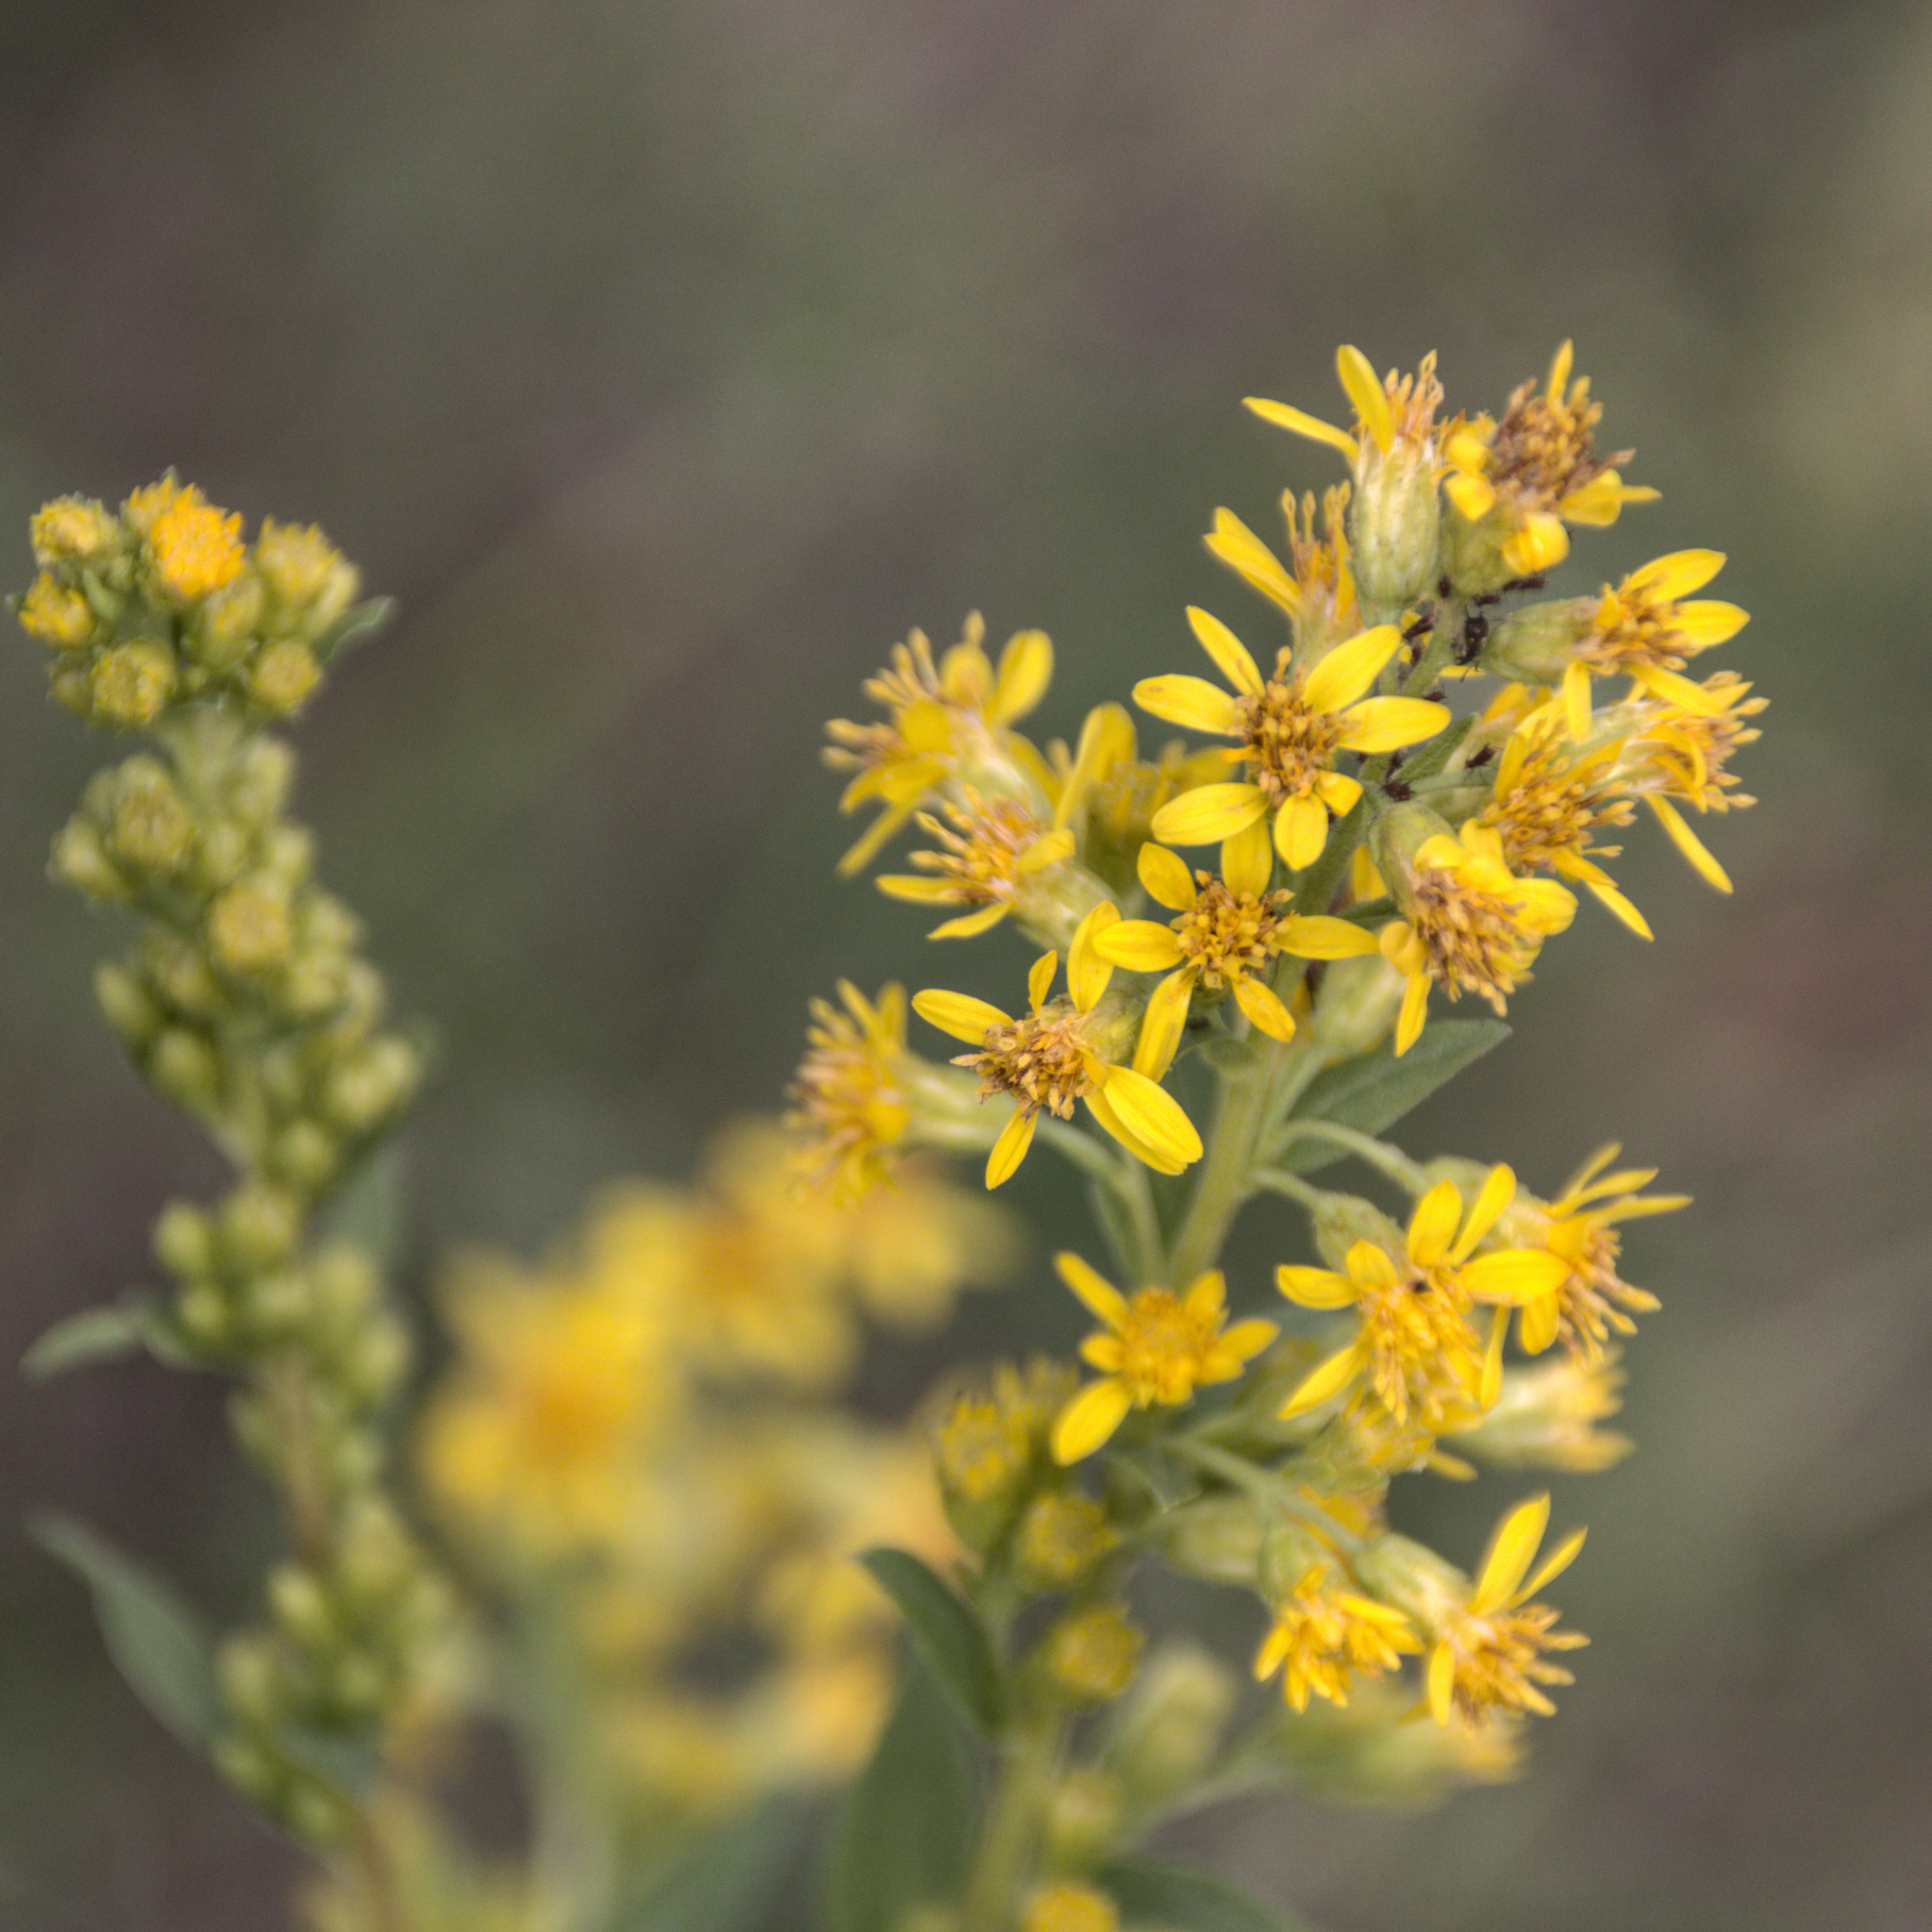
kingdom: Plantae
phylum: Tracheophyta
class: Magnoliopsida
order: Asterales
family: Asteraceae
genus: Solidago
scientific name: Solidago virgaurea
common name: Goldenrod
